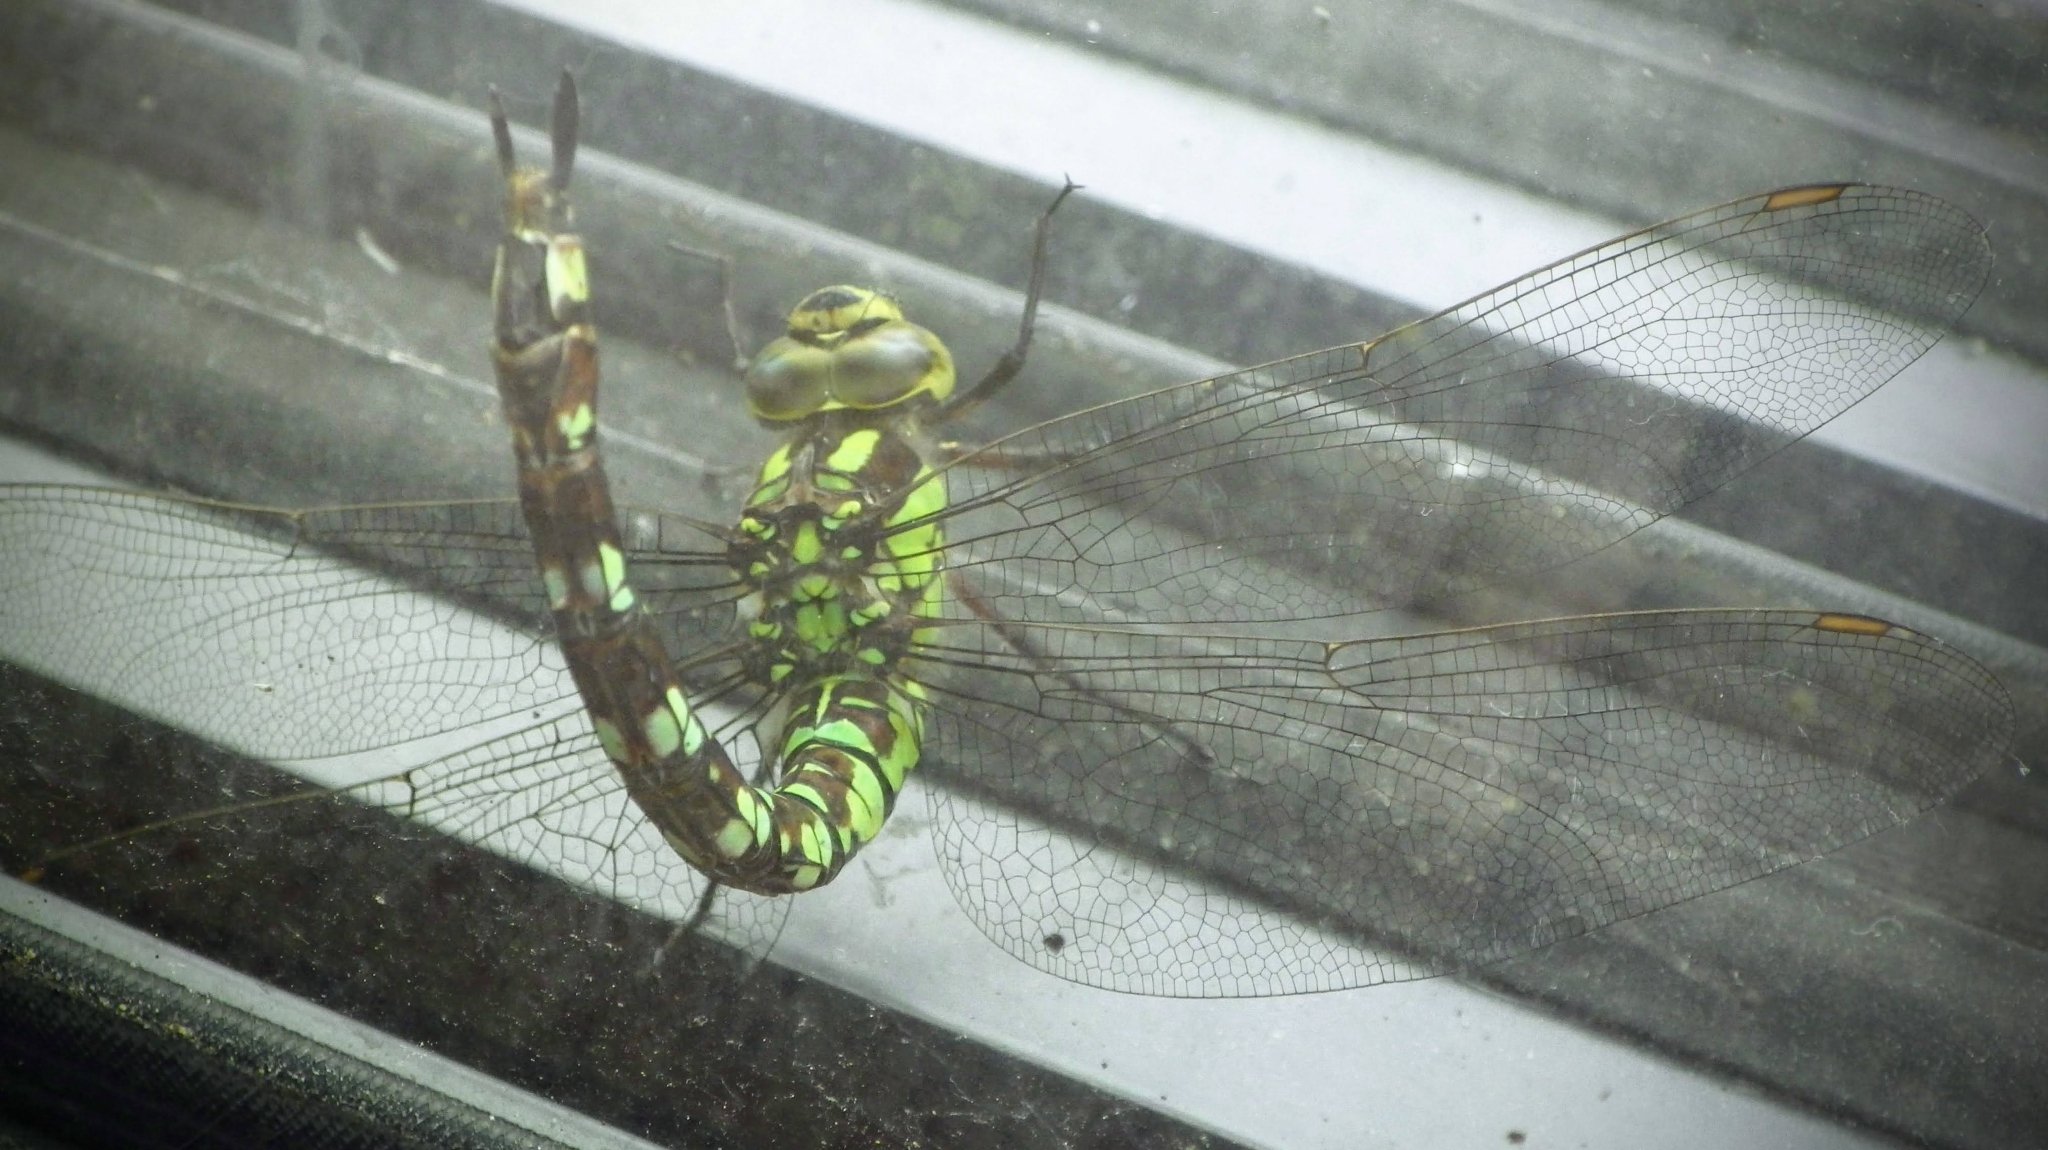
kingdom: Animalia
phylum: Arthropoda
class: Insecta
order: Odonata
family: Aeshnidae
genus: Aeshna
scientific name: Aeshna cyanea
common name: Southern hawker
